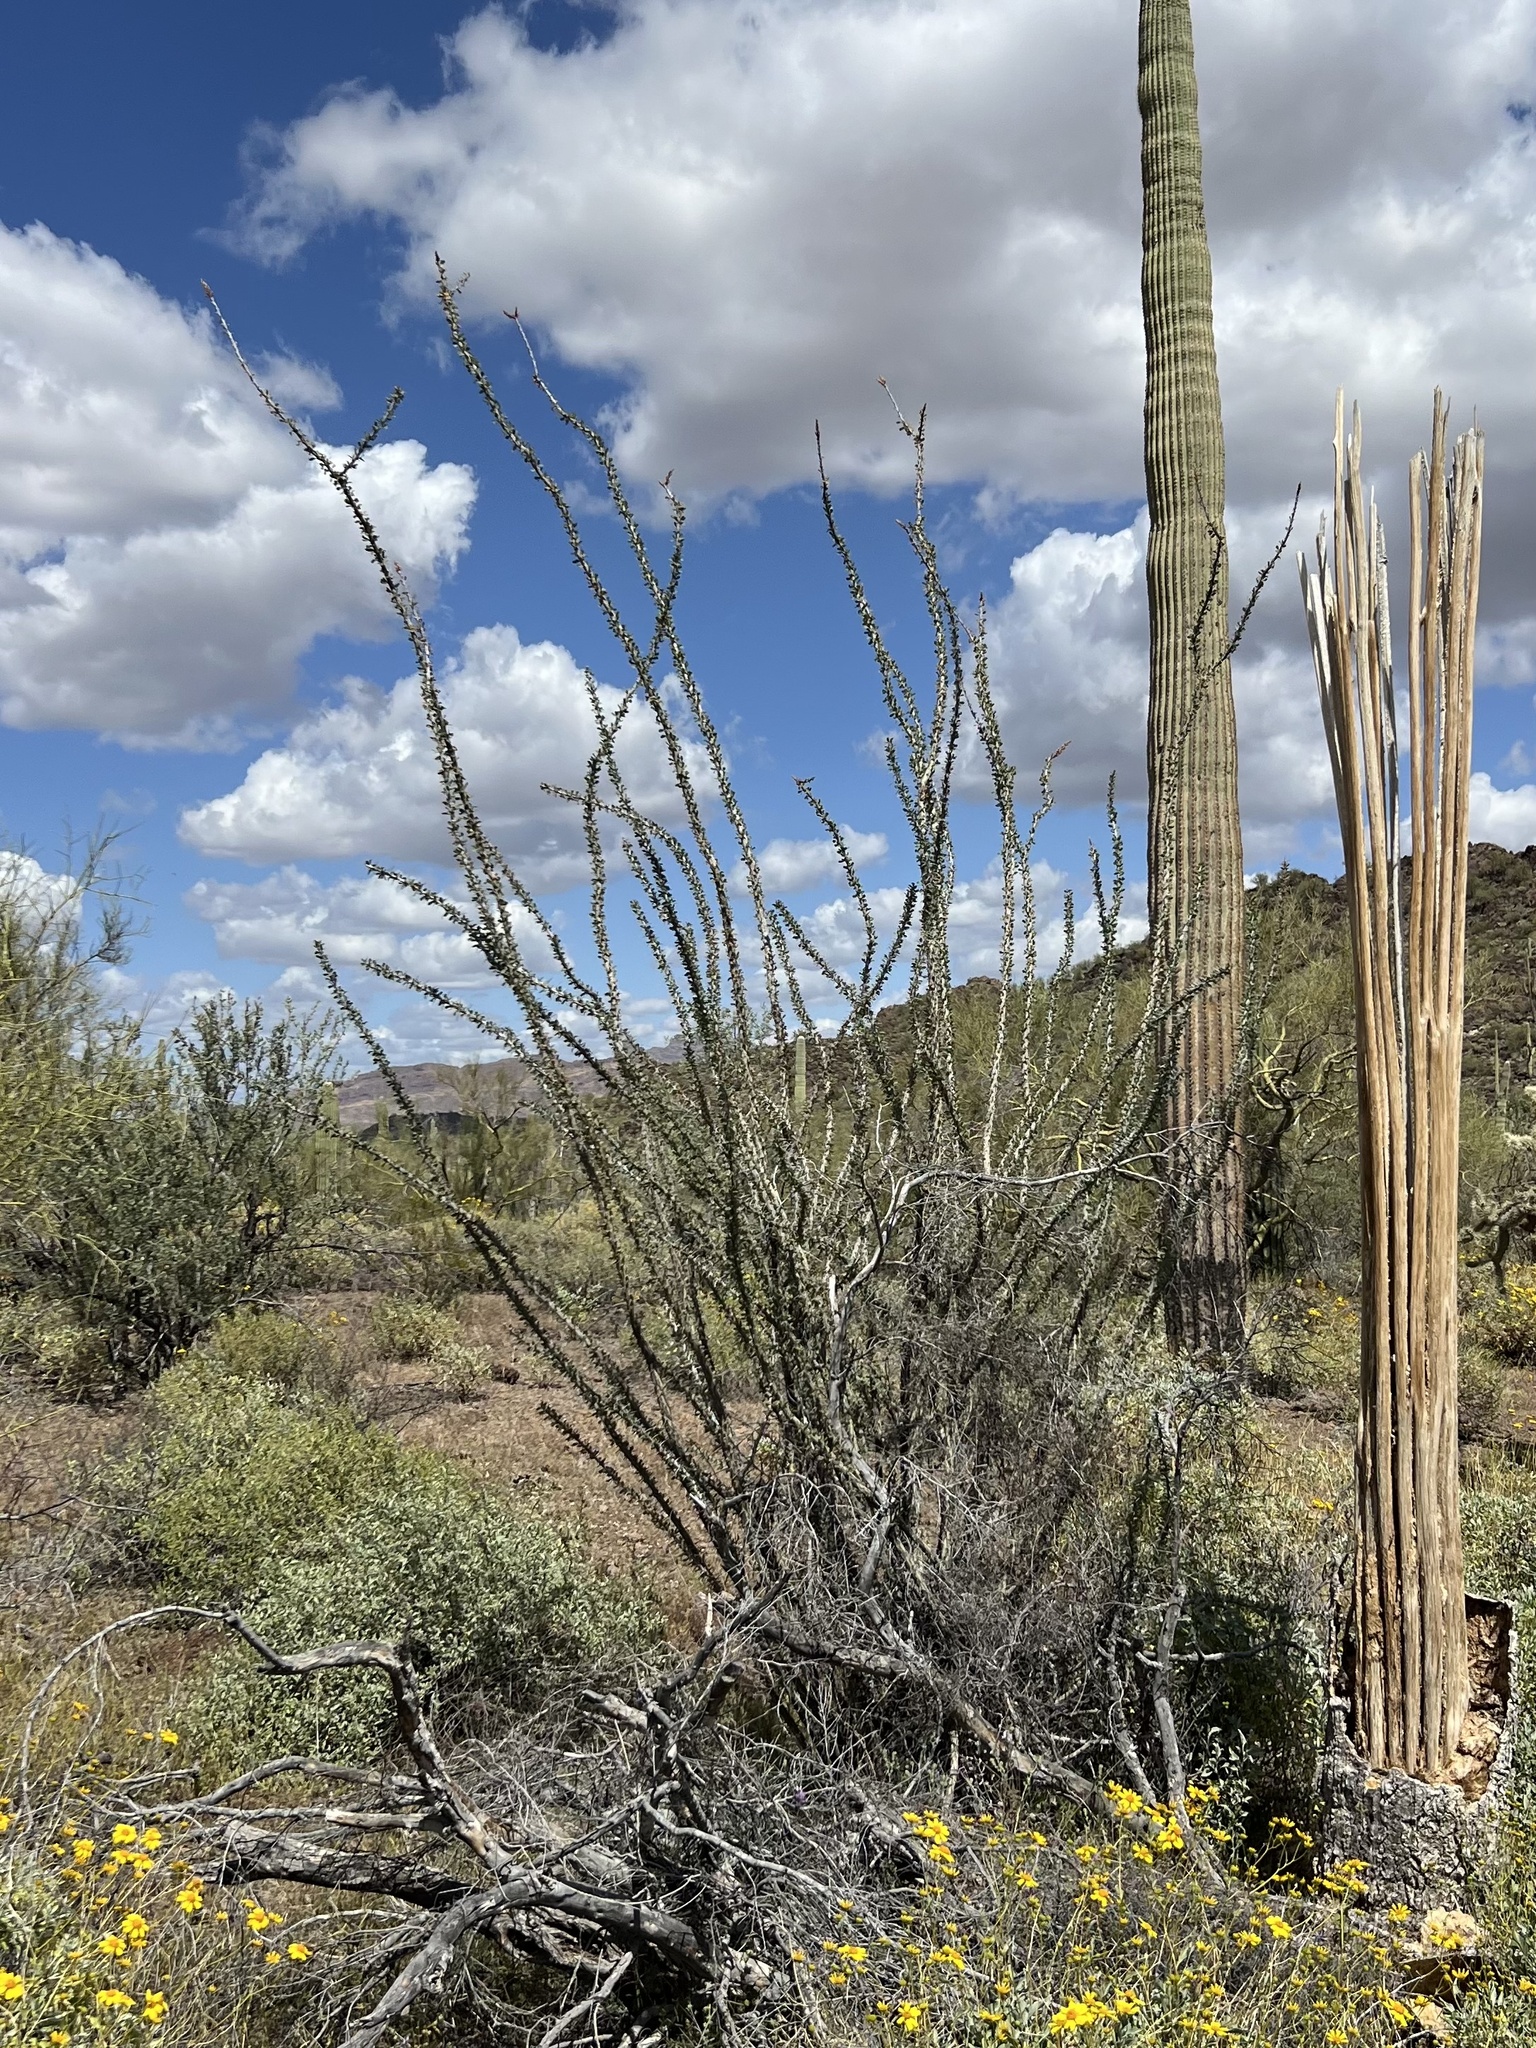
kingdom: Plantae
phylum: Tracheophyta
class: Magnoliopsida
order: Ericales
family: Fouquieriaceae
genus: Fouquieria
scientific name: Fouquieria splendens
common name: Vine-cactus
